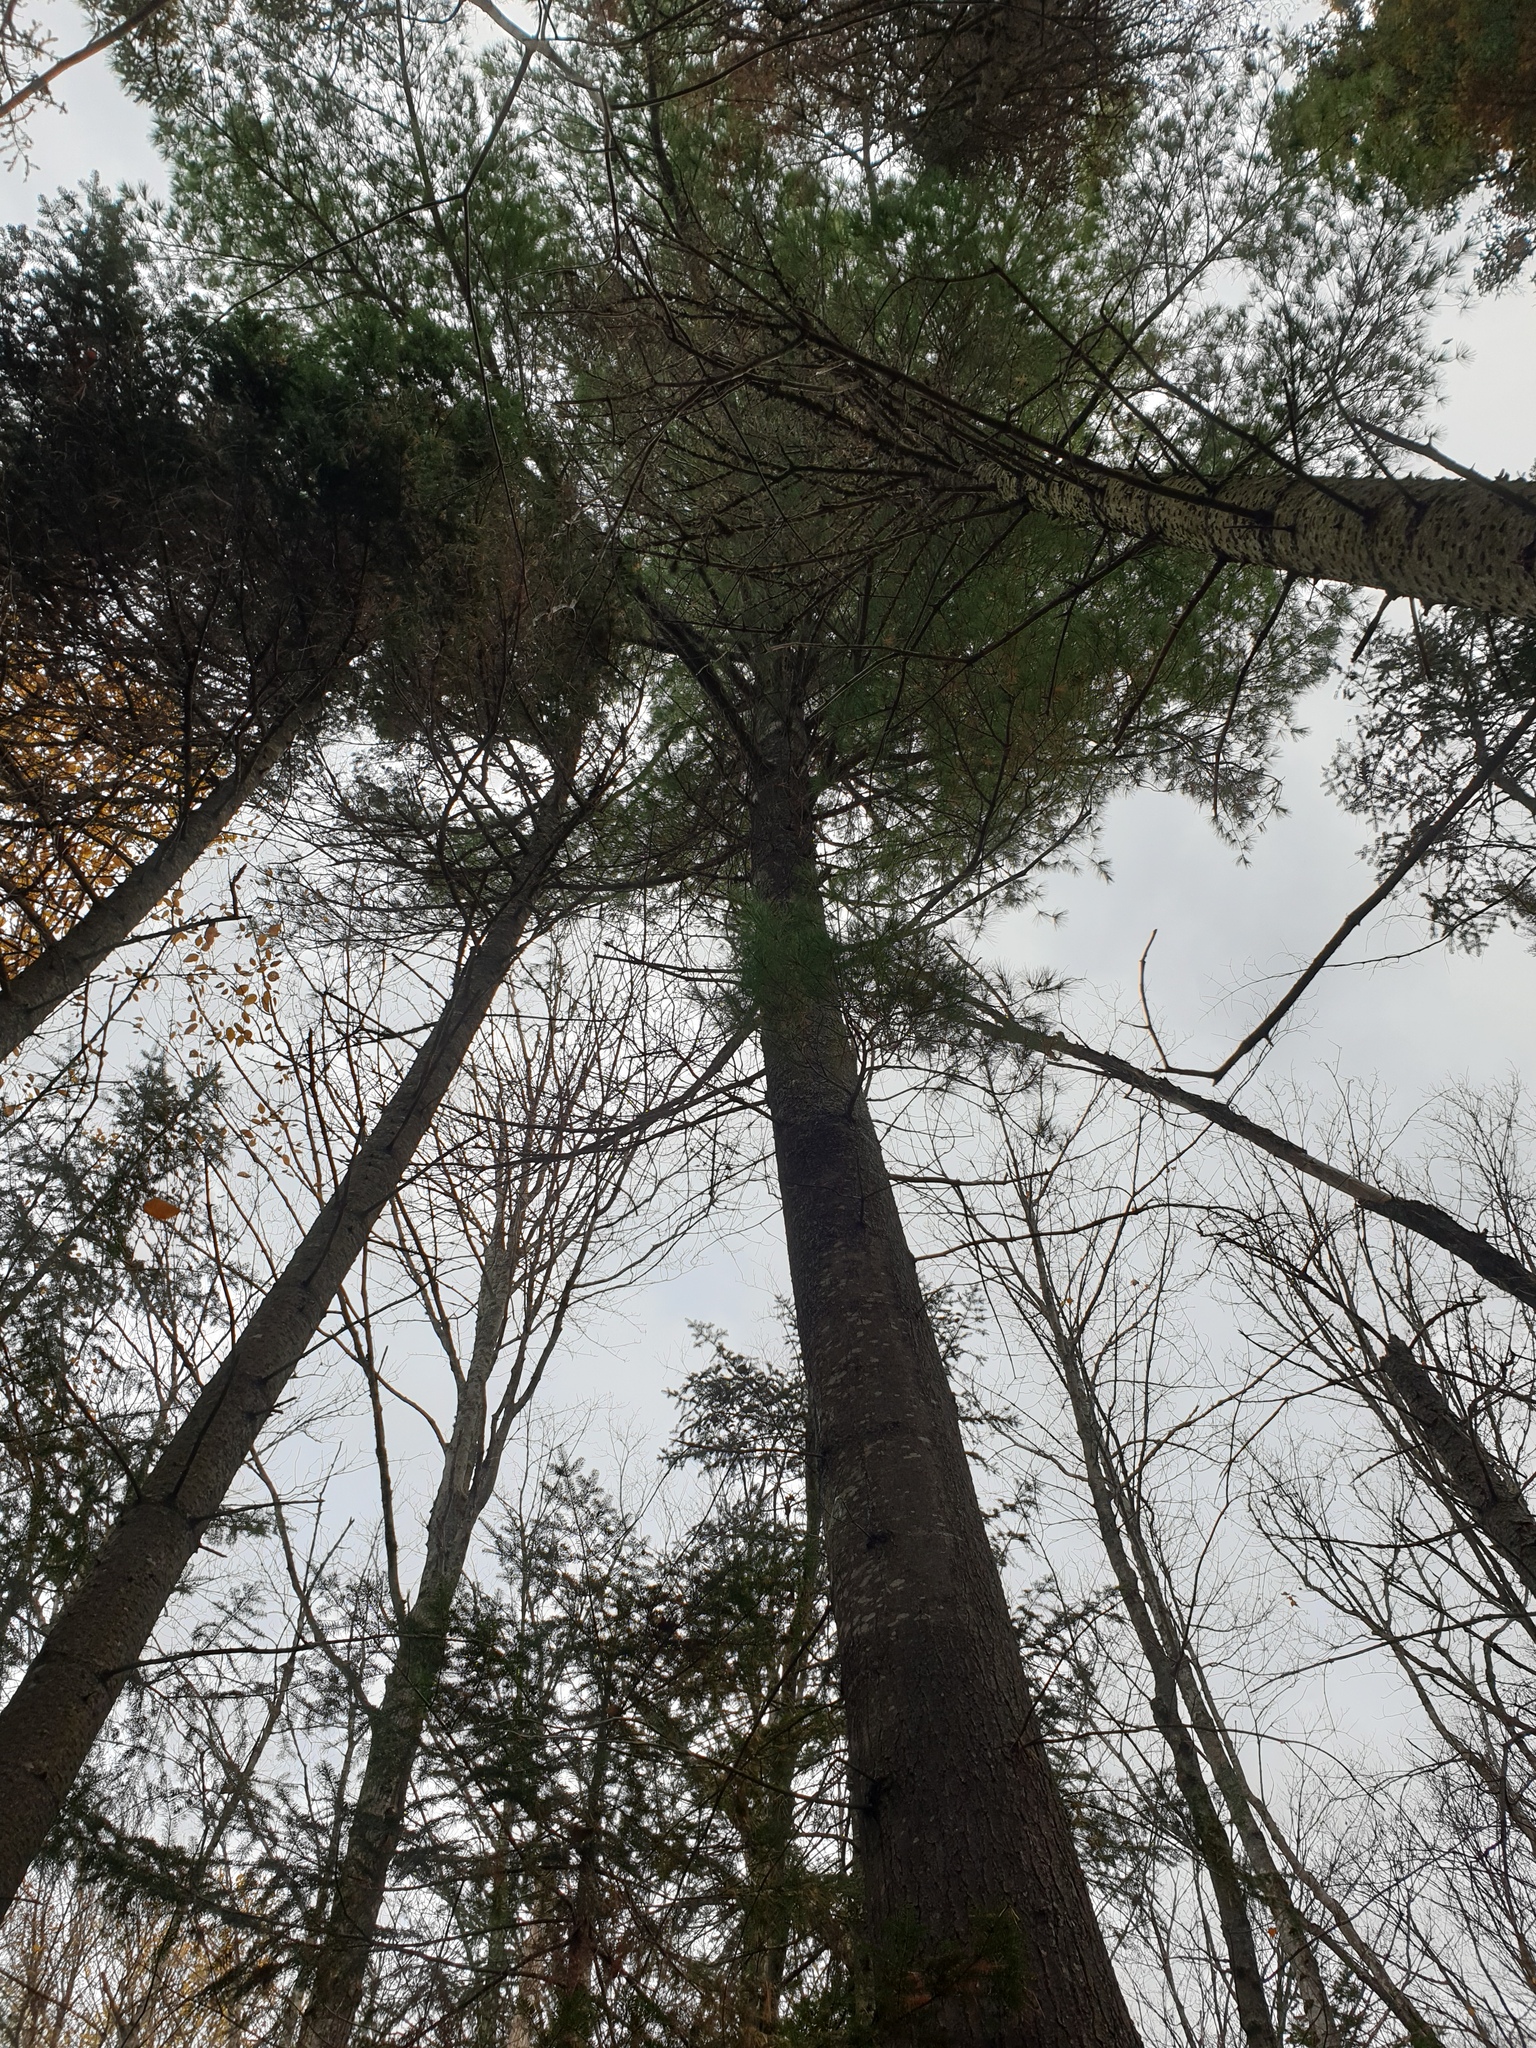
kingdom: Plantae
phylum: Tracheophyta
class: Pinopsida
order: Pinales
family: Pinaceae
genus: Pinus
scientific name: Pinus strobus
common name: Weymouth pine
